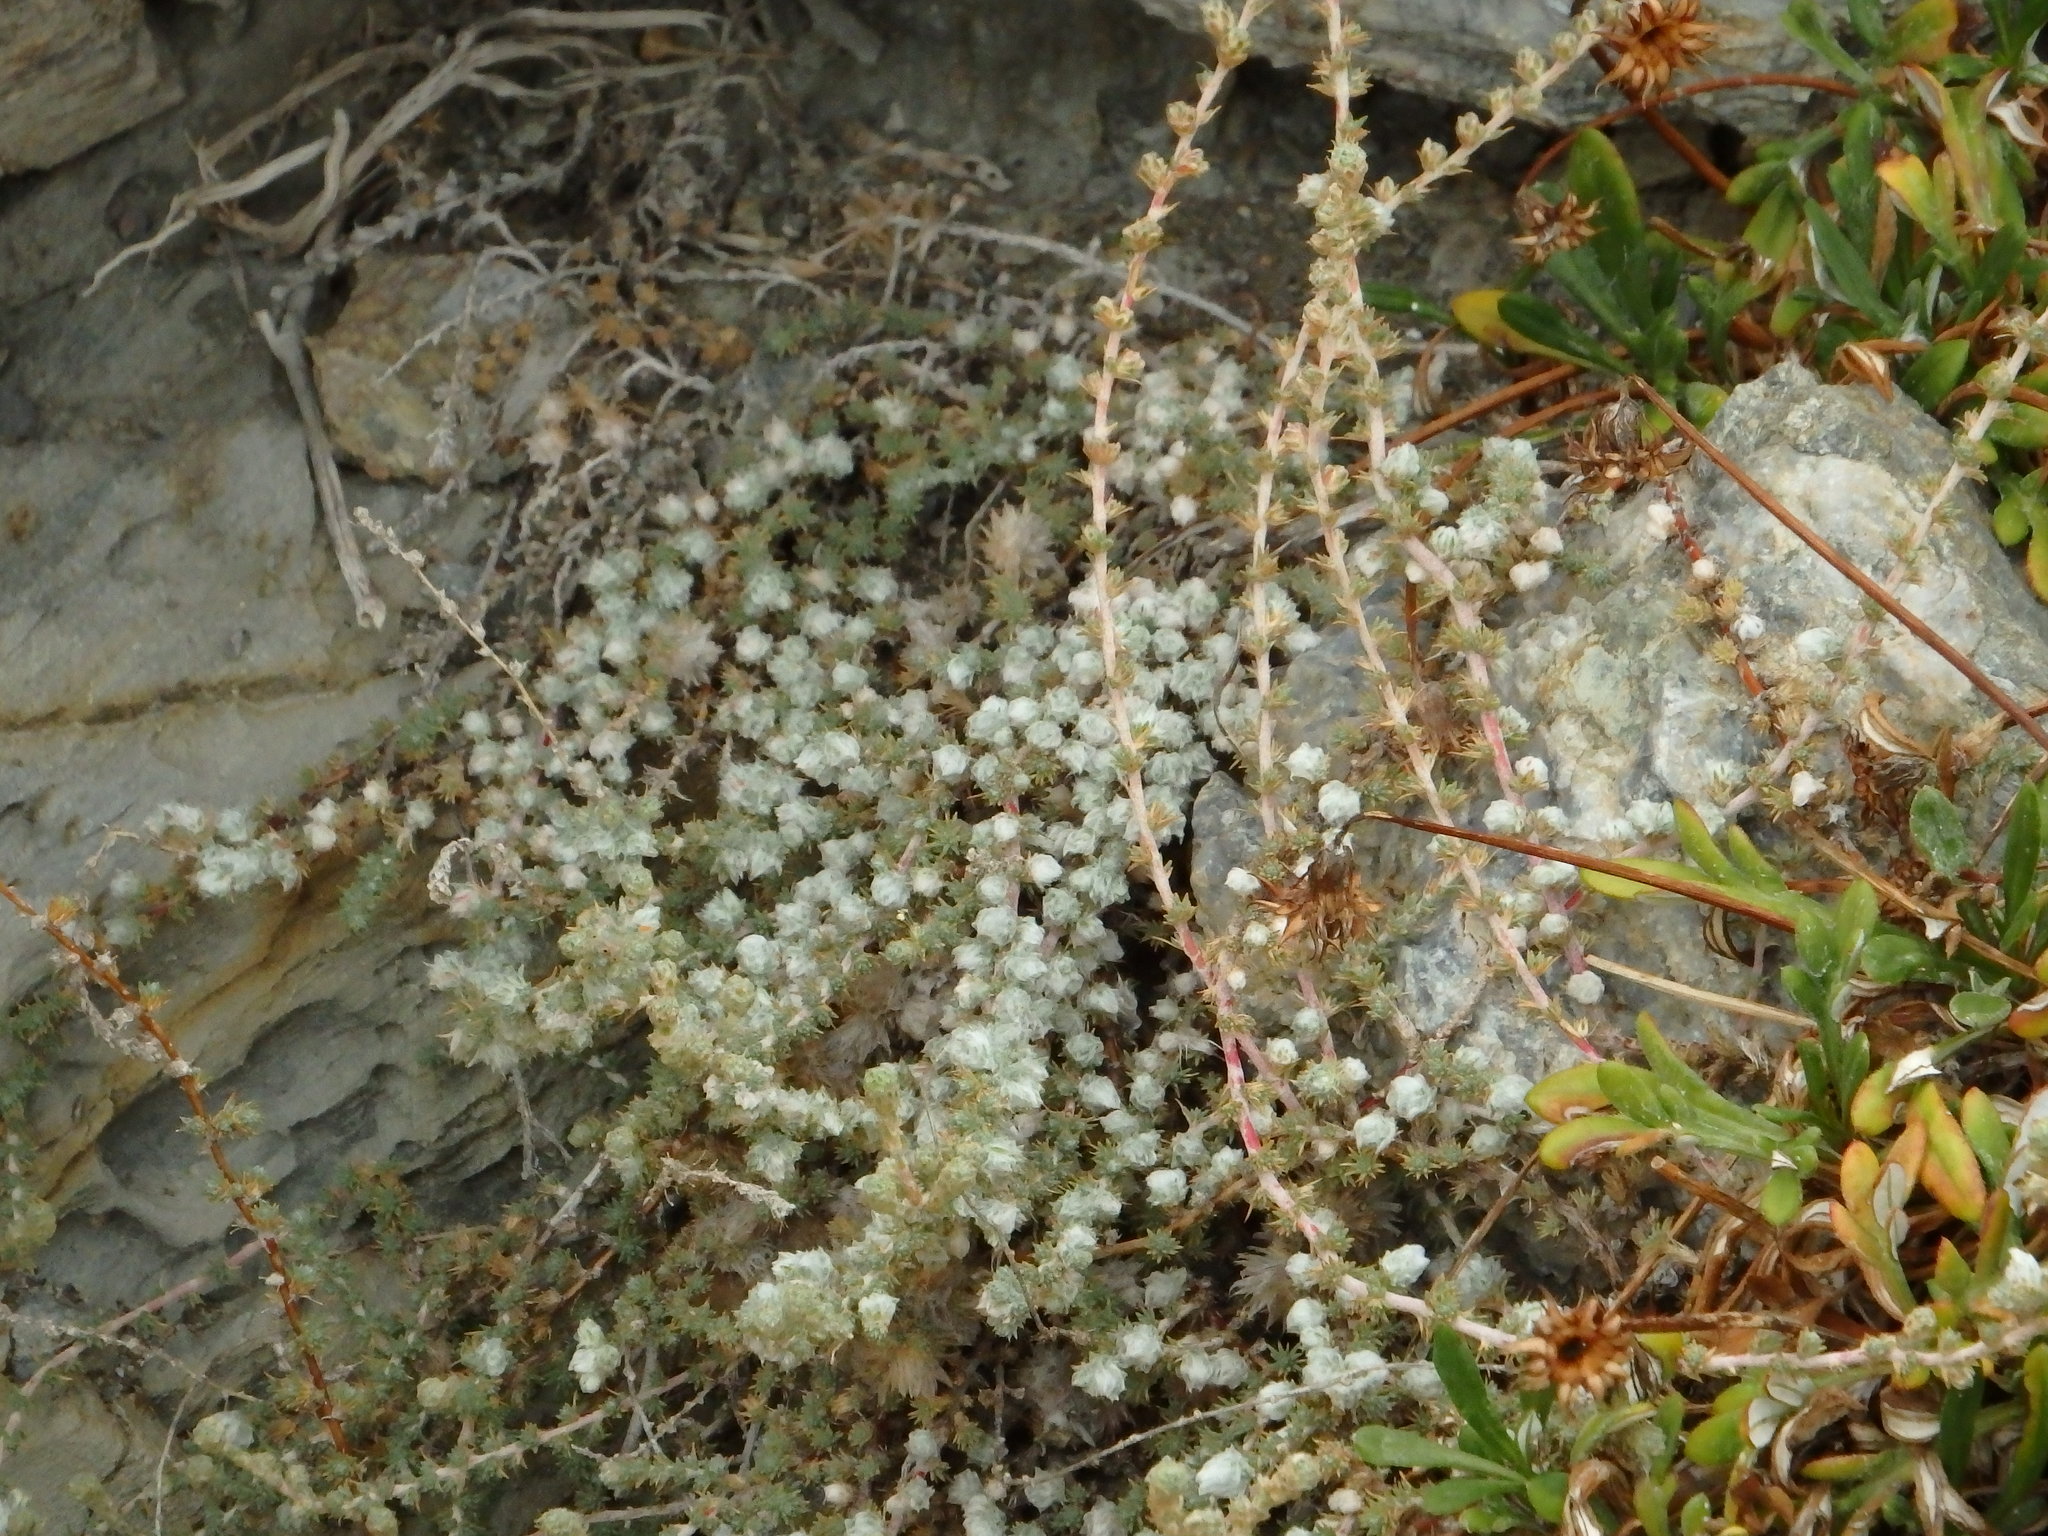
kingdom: Plantae
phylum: Tracheophyta
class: Magnoliopsida
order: Caryophyllales
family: Amaranthaceae
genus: Camphorosma
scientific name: Camphorosma monspeliaca
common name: Camphorfume
